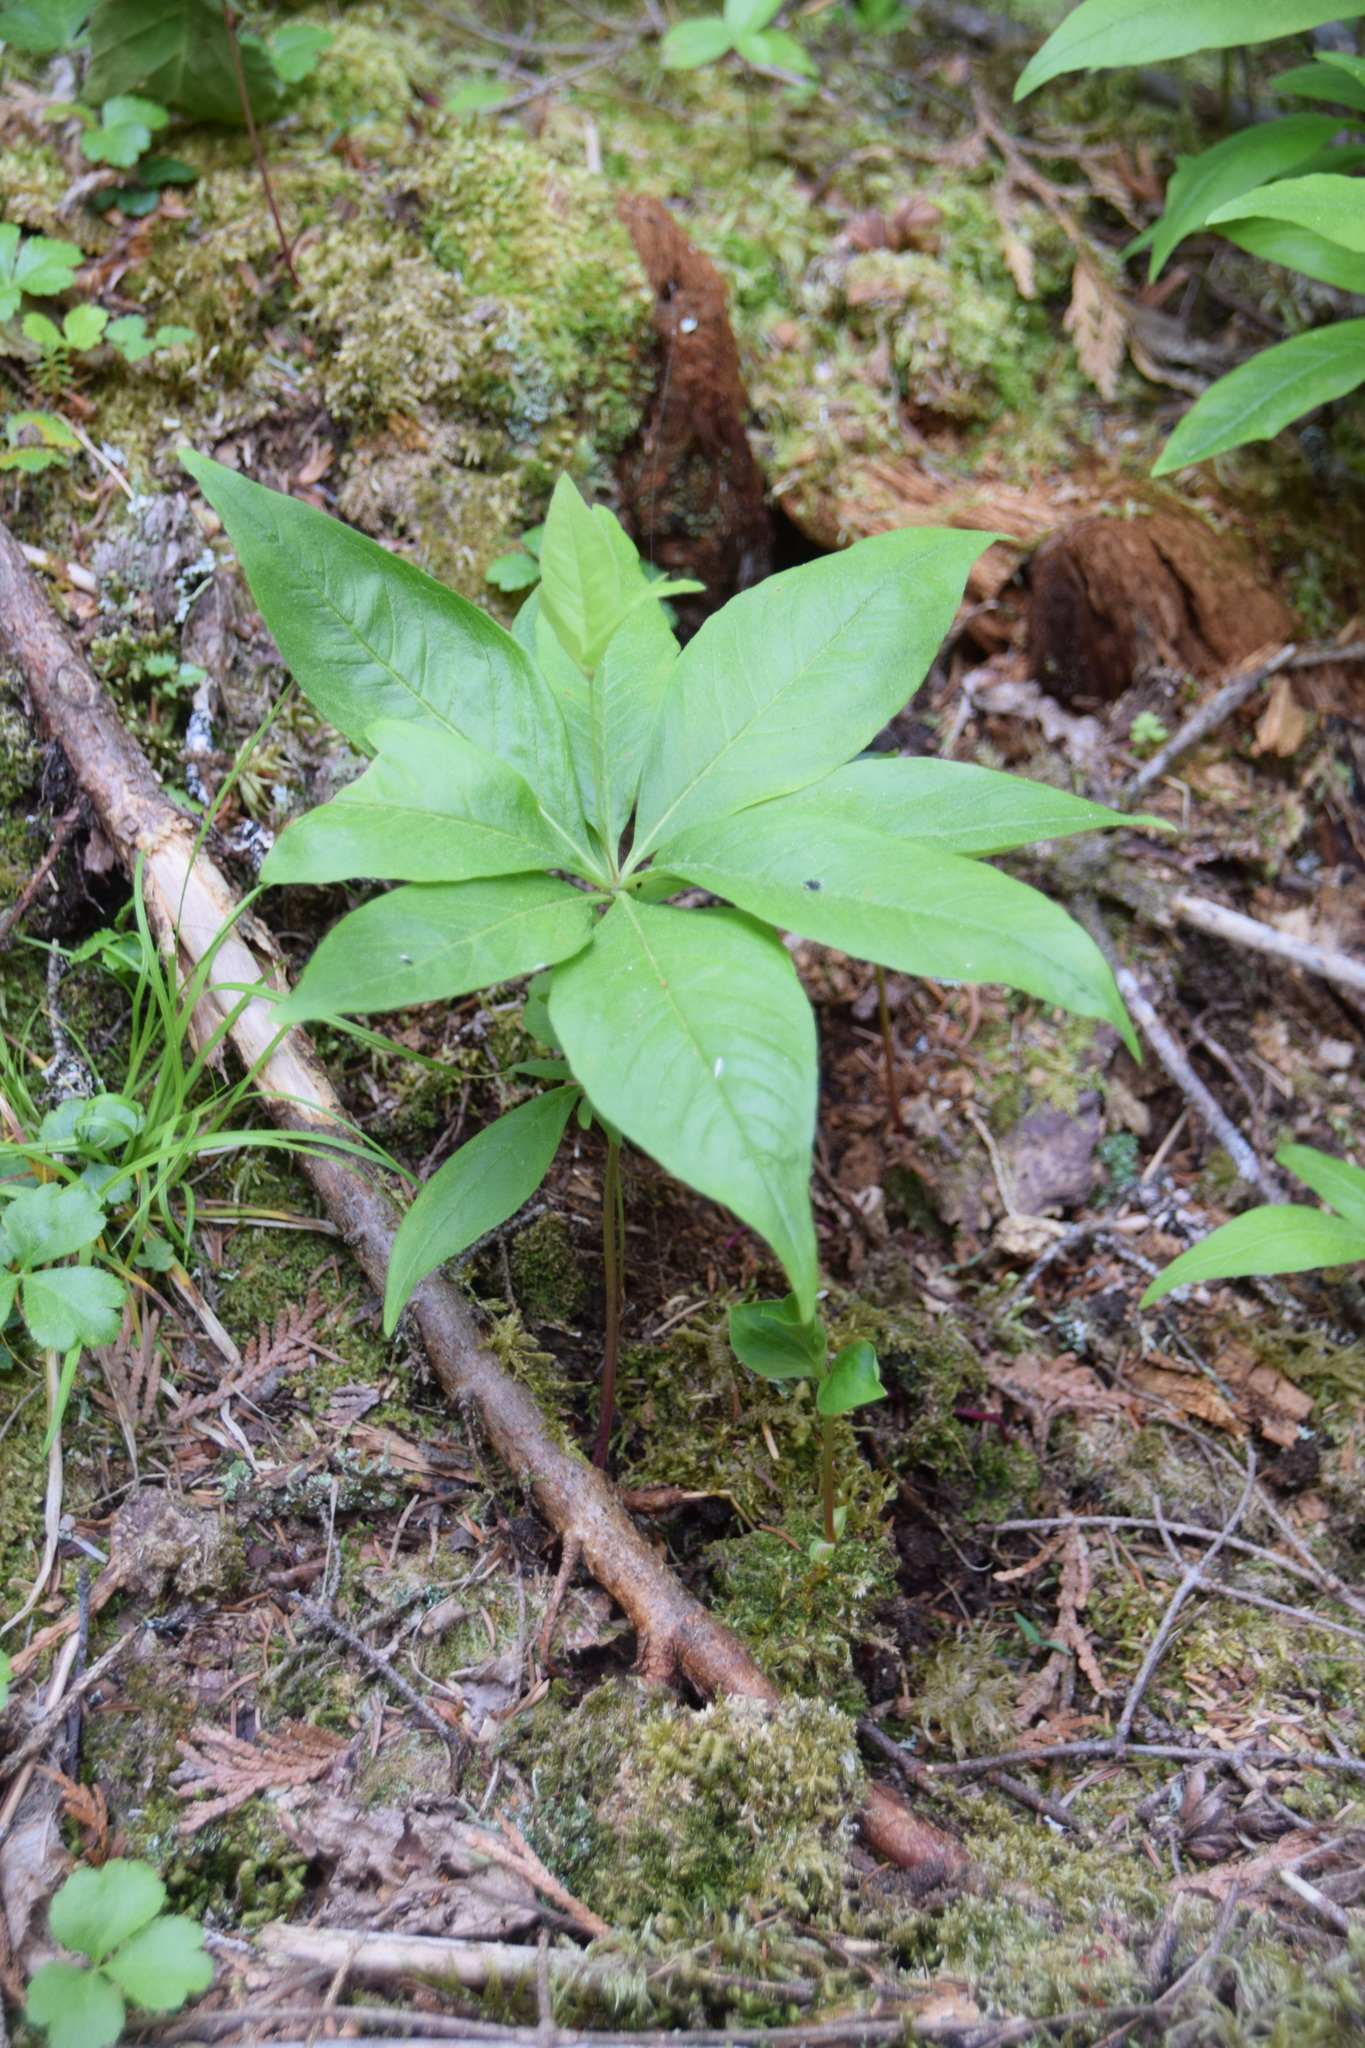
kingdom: Plantae
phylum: Tracheophyta
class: Magnoliopsida
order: Ericales
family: Primulaceae
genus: Lysimachia
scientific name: Lysimachia borealis
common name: American starflower
